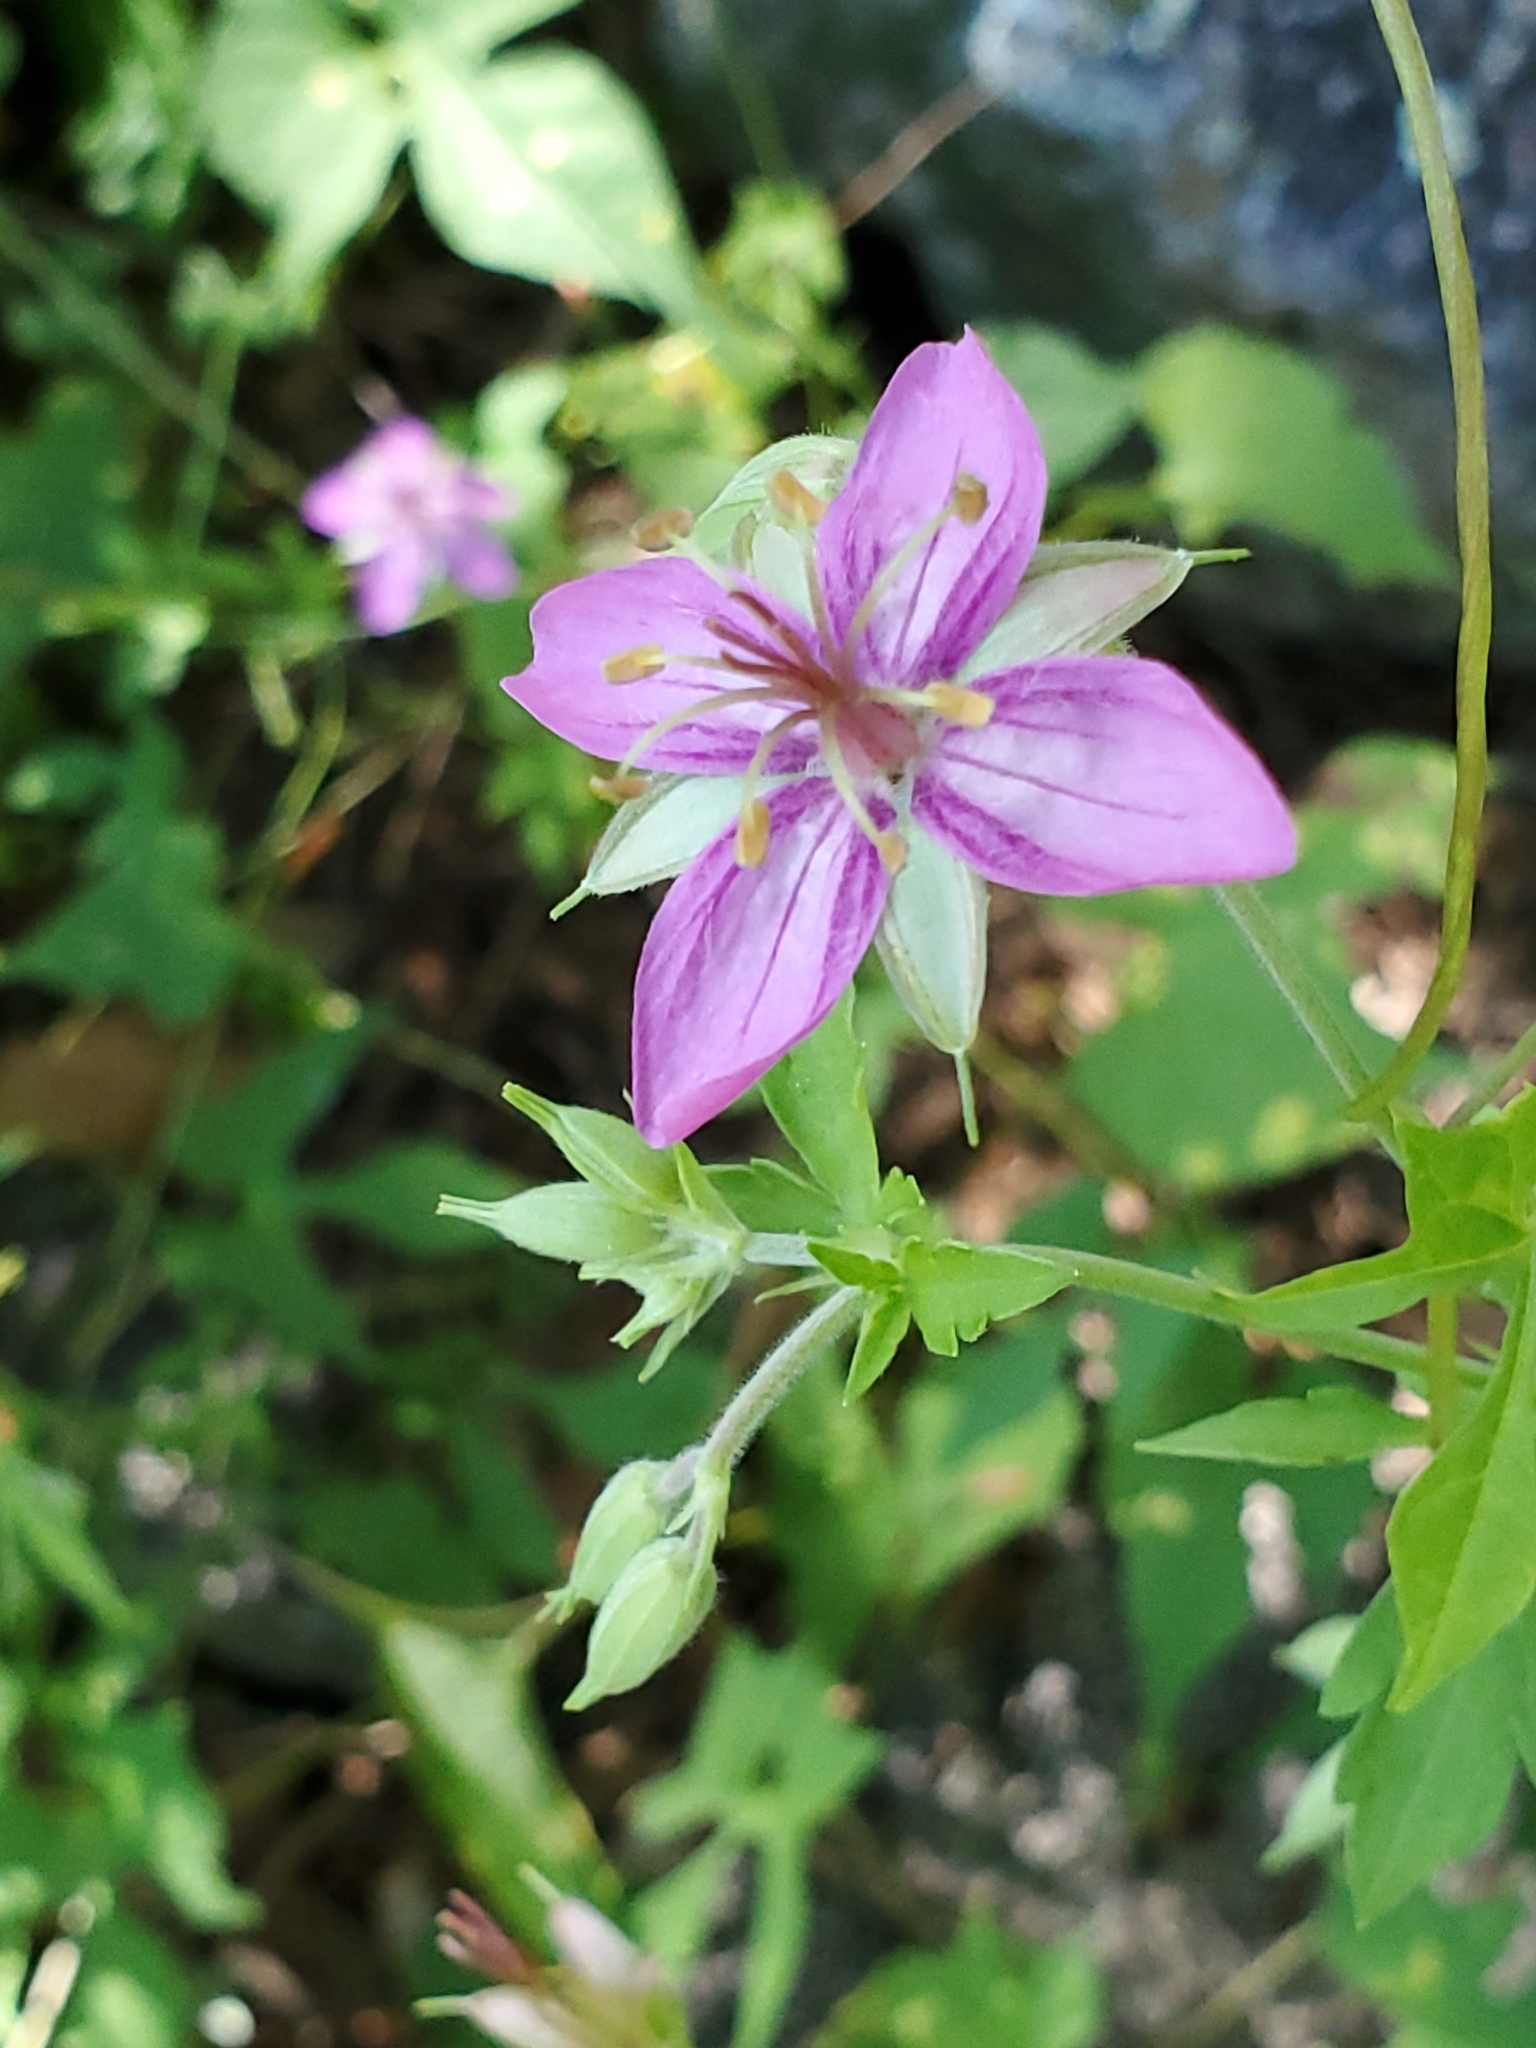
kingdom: Plantae
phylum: Tracheophyta
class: Magnoliopsida
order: Geraniales
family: Geraniaceae
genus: Geranium
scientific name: Geranium caespitosum
